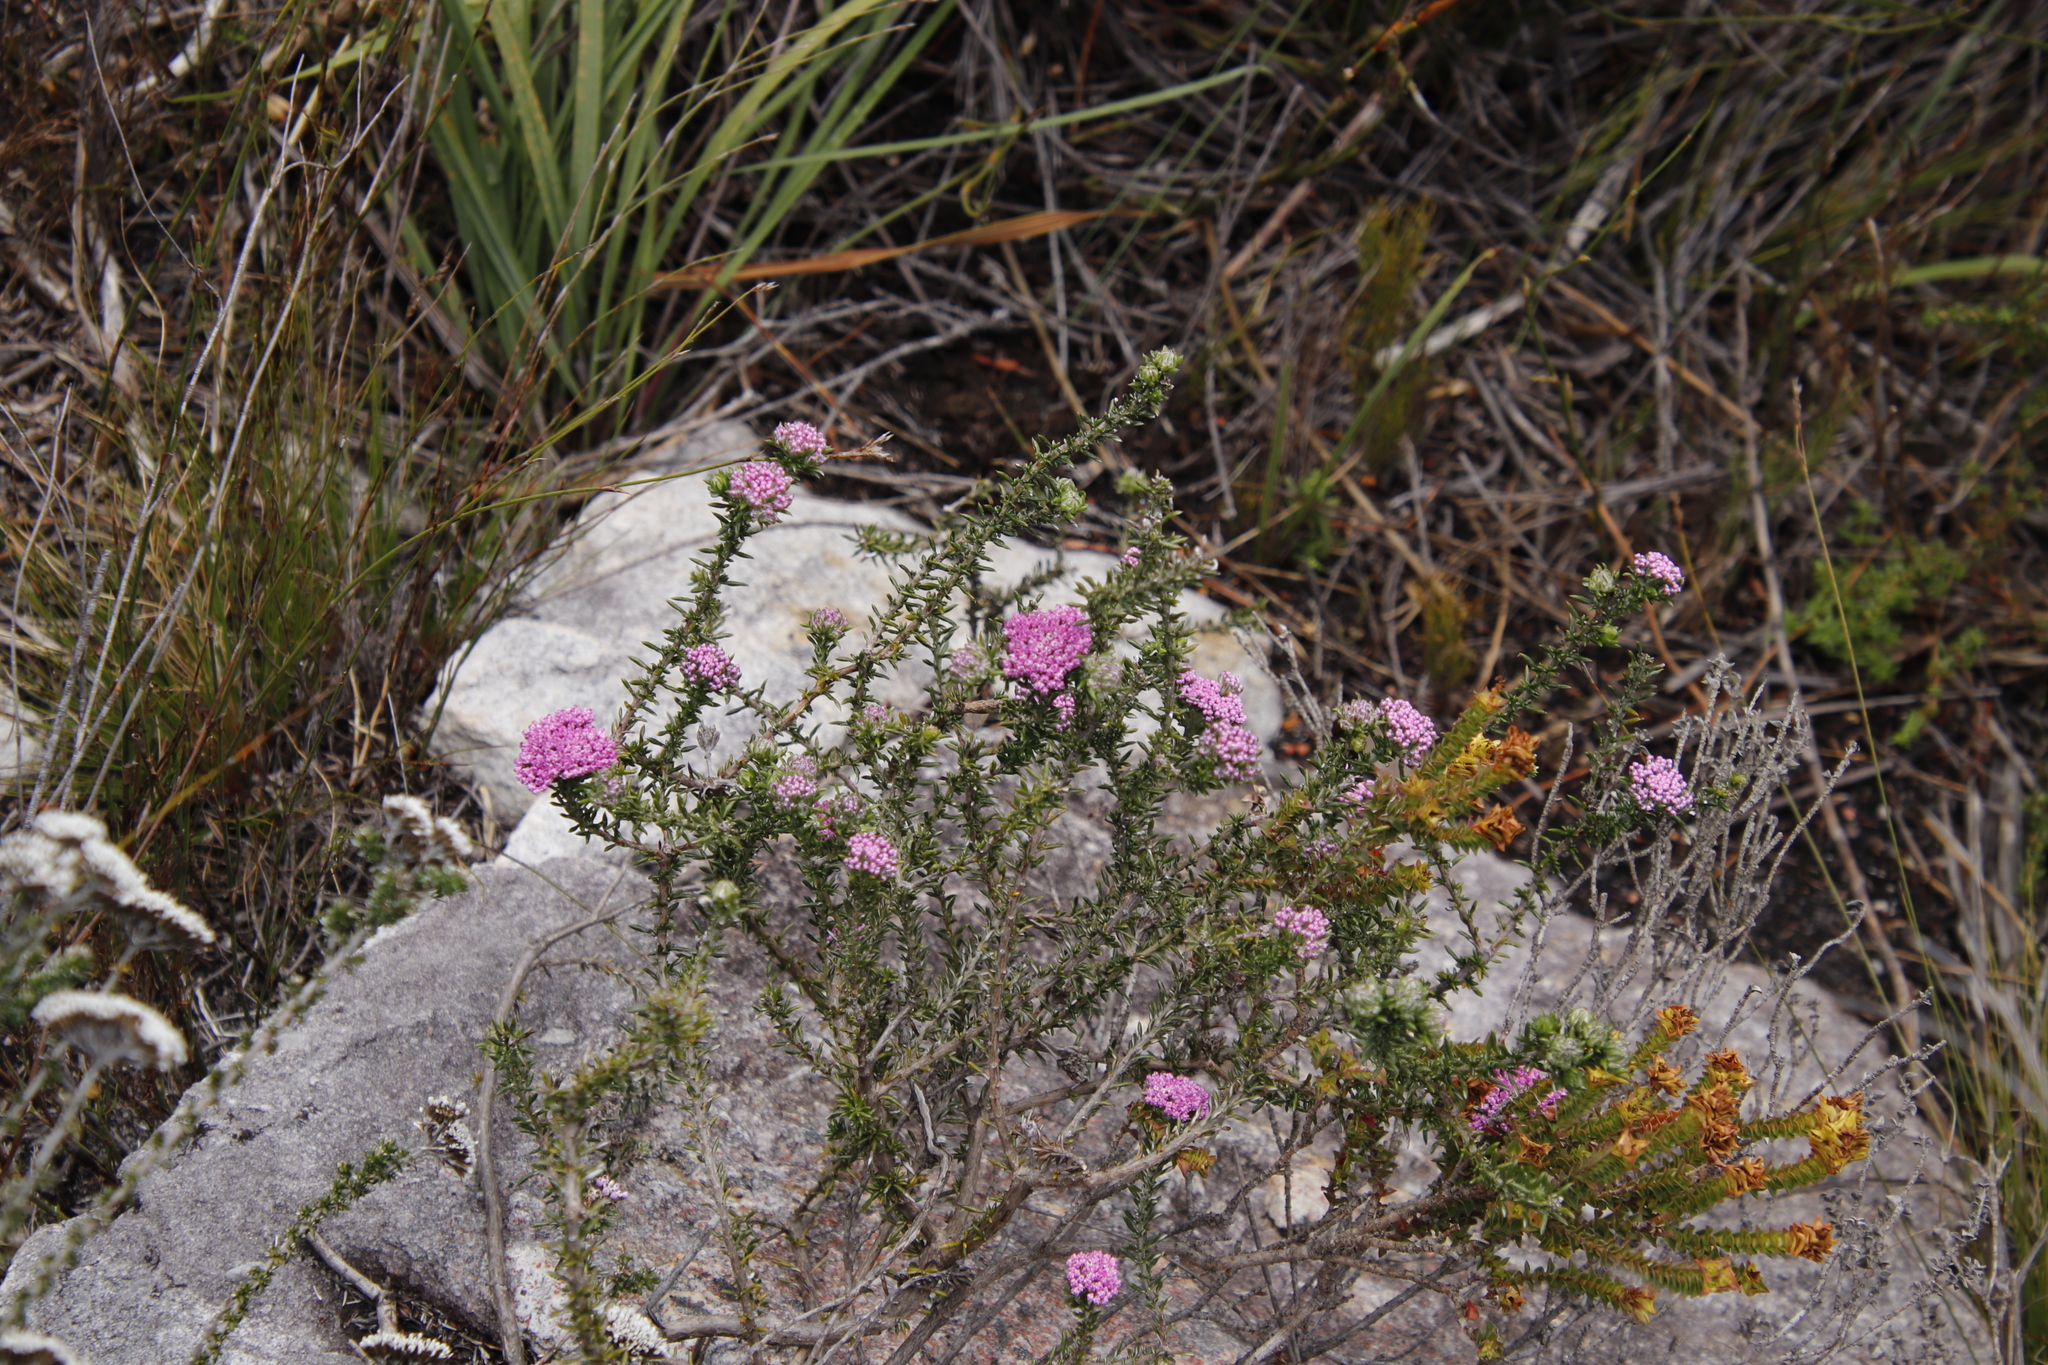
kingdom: Plantae
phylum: Tracheophyta
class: Magnoliopsida
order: Asterales
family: Asteraceae
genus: Metalasia
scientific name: Metalasia serrata
